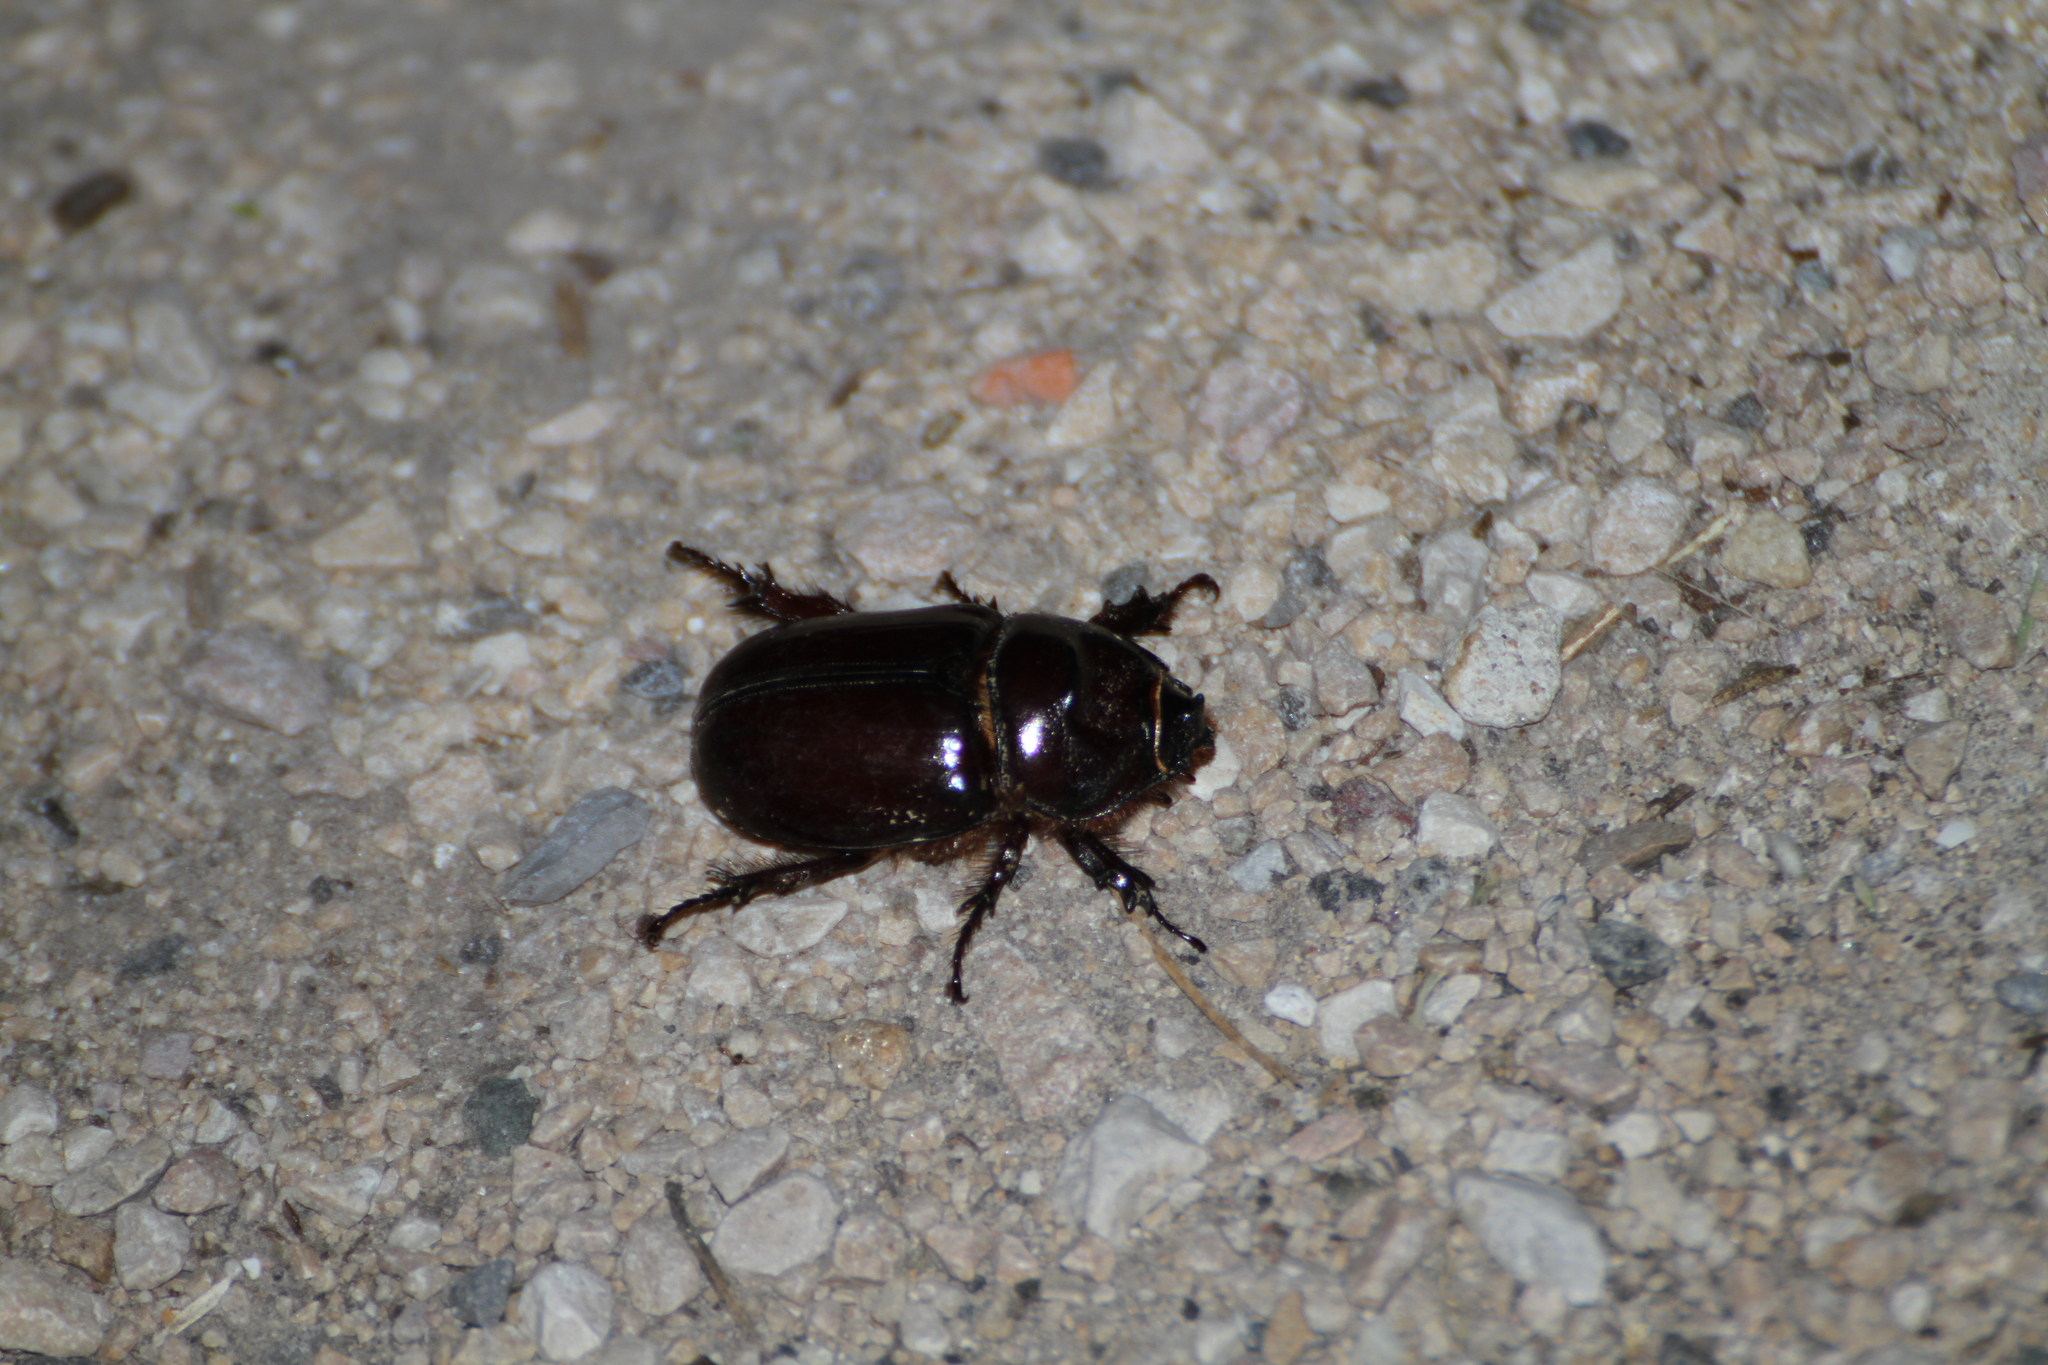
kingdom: Animalia
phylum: Arthropoda
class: Insecta
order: Coleoptera
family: Scarabaeidae
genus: Oryctes
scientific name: Oryctes nasicornis
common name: European rhinoceros beetle
